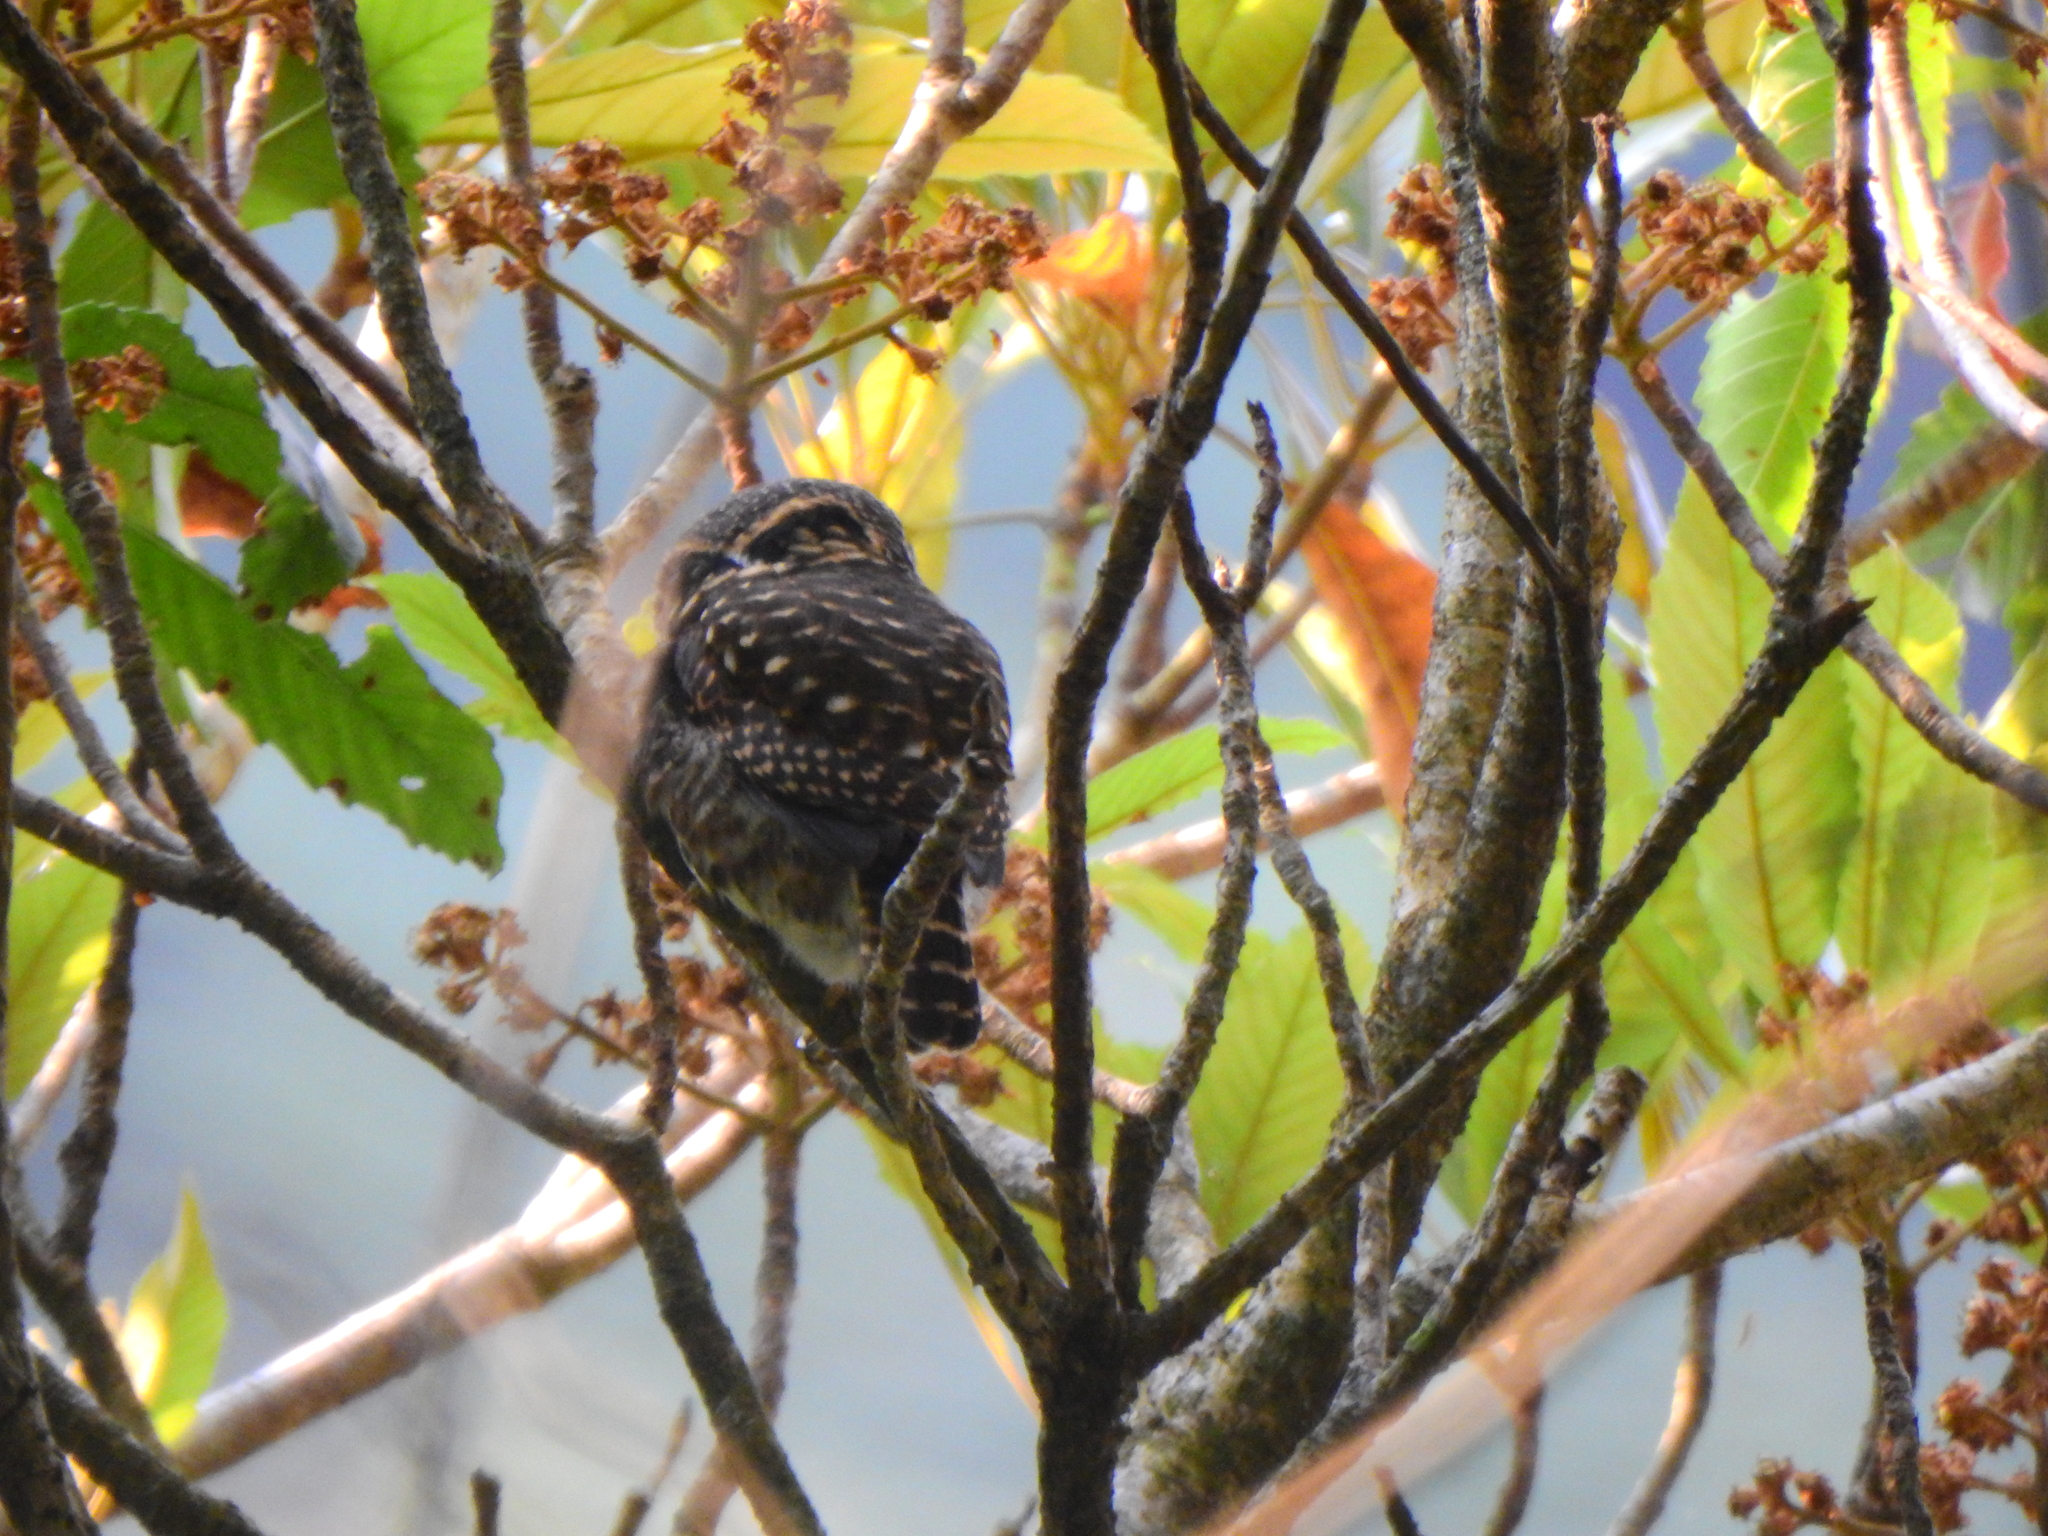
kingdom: Animalia
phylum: Chordata
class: Aves
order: Strigiformes
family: Strigidae
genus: Glaucidium
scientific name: Glaucidium brodiei
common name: Collared owlet
